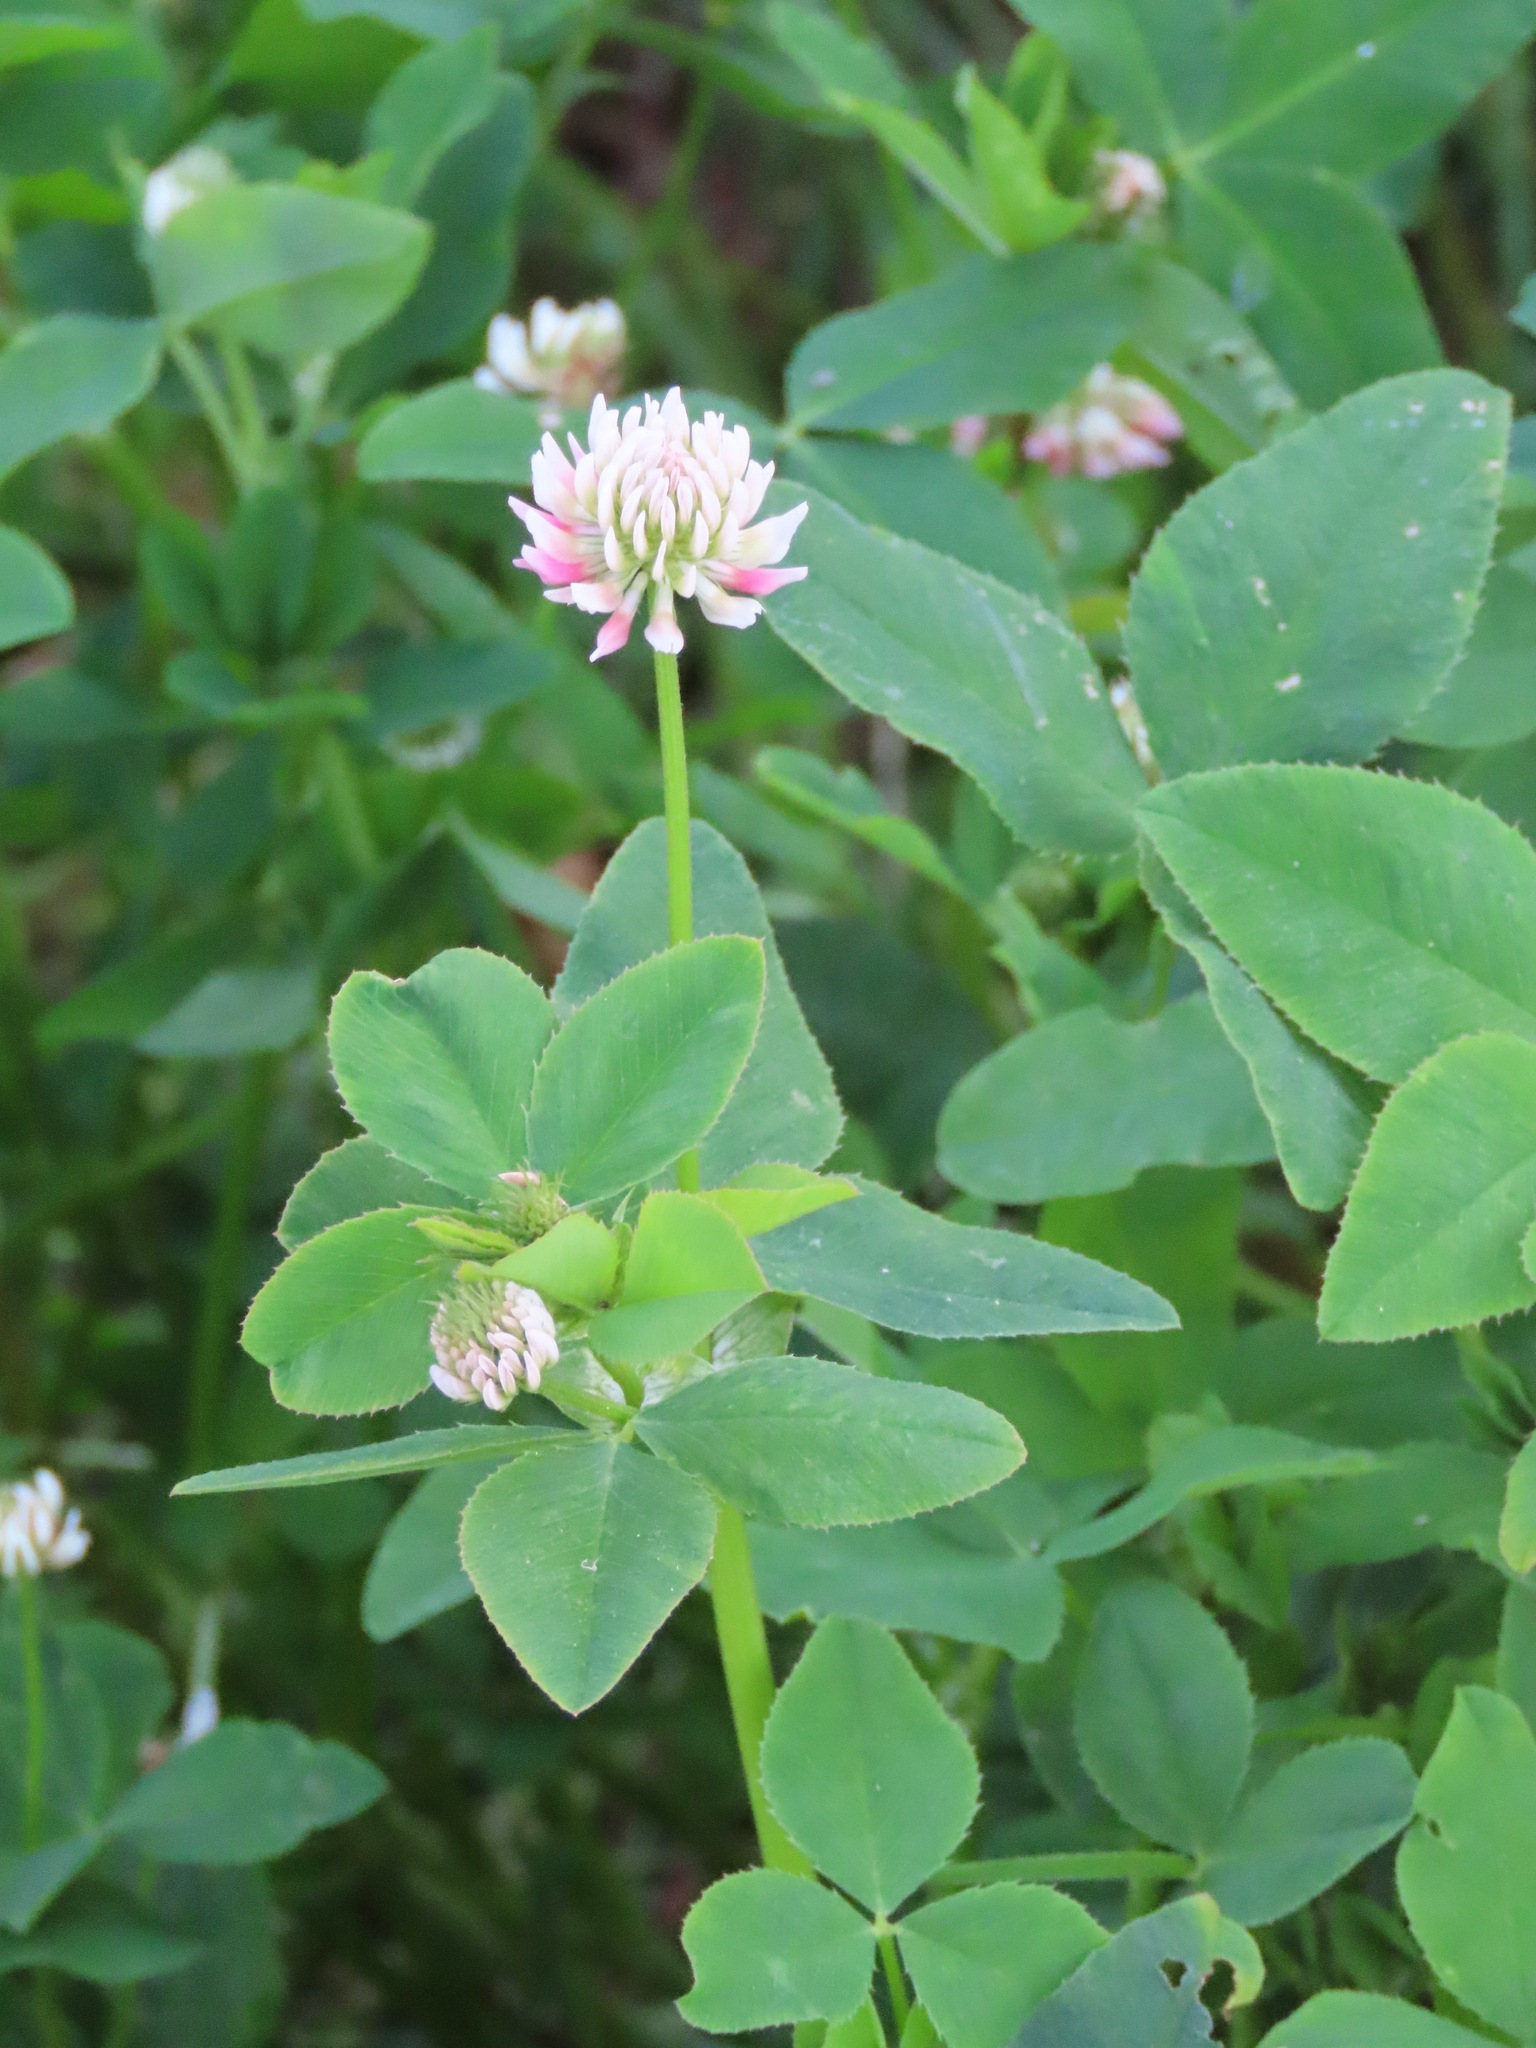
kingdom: Plantae
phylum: Tracheophyta
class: Magnoliopsida
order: Fabales
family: Fabaceae
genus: Trifolium
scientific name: Trifolium hybridum
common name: Alsike clover
